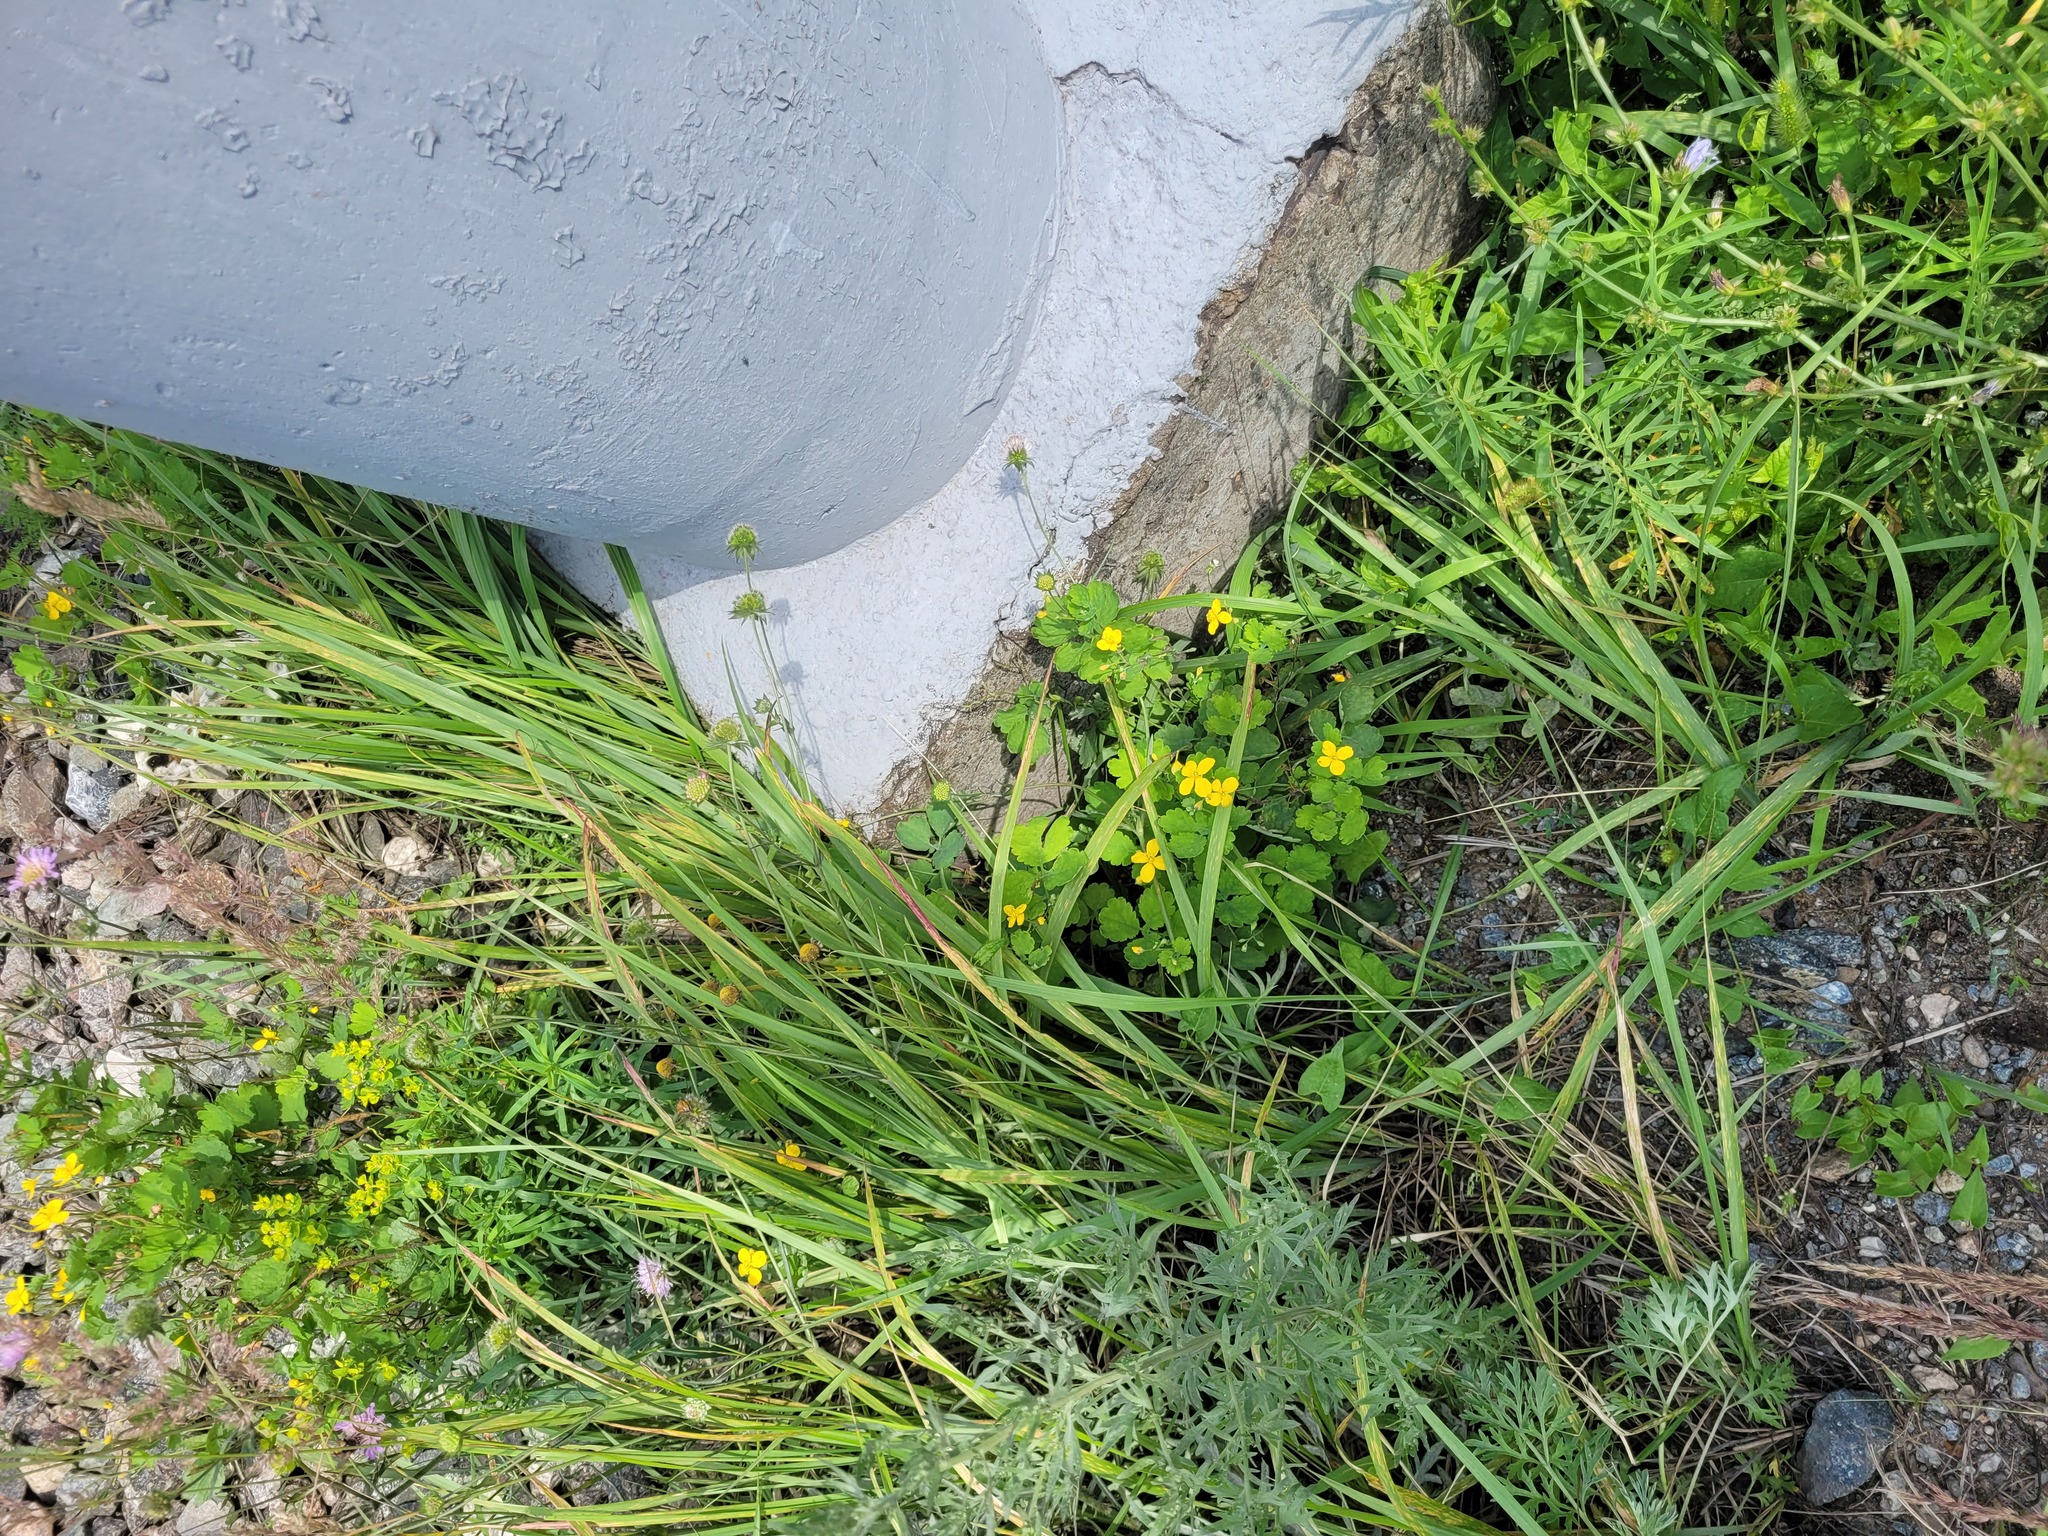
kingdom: Plantae
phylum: Tracheophyta
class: Magnoliopsida
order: Ranunculales
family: Papaveraceae
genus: Chelidonium
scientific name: Chelidonium majus
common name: Greater celandine
